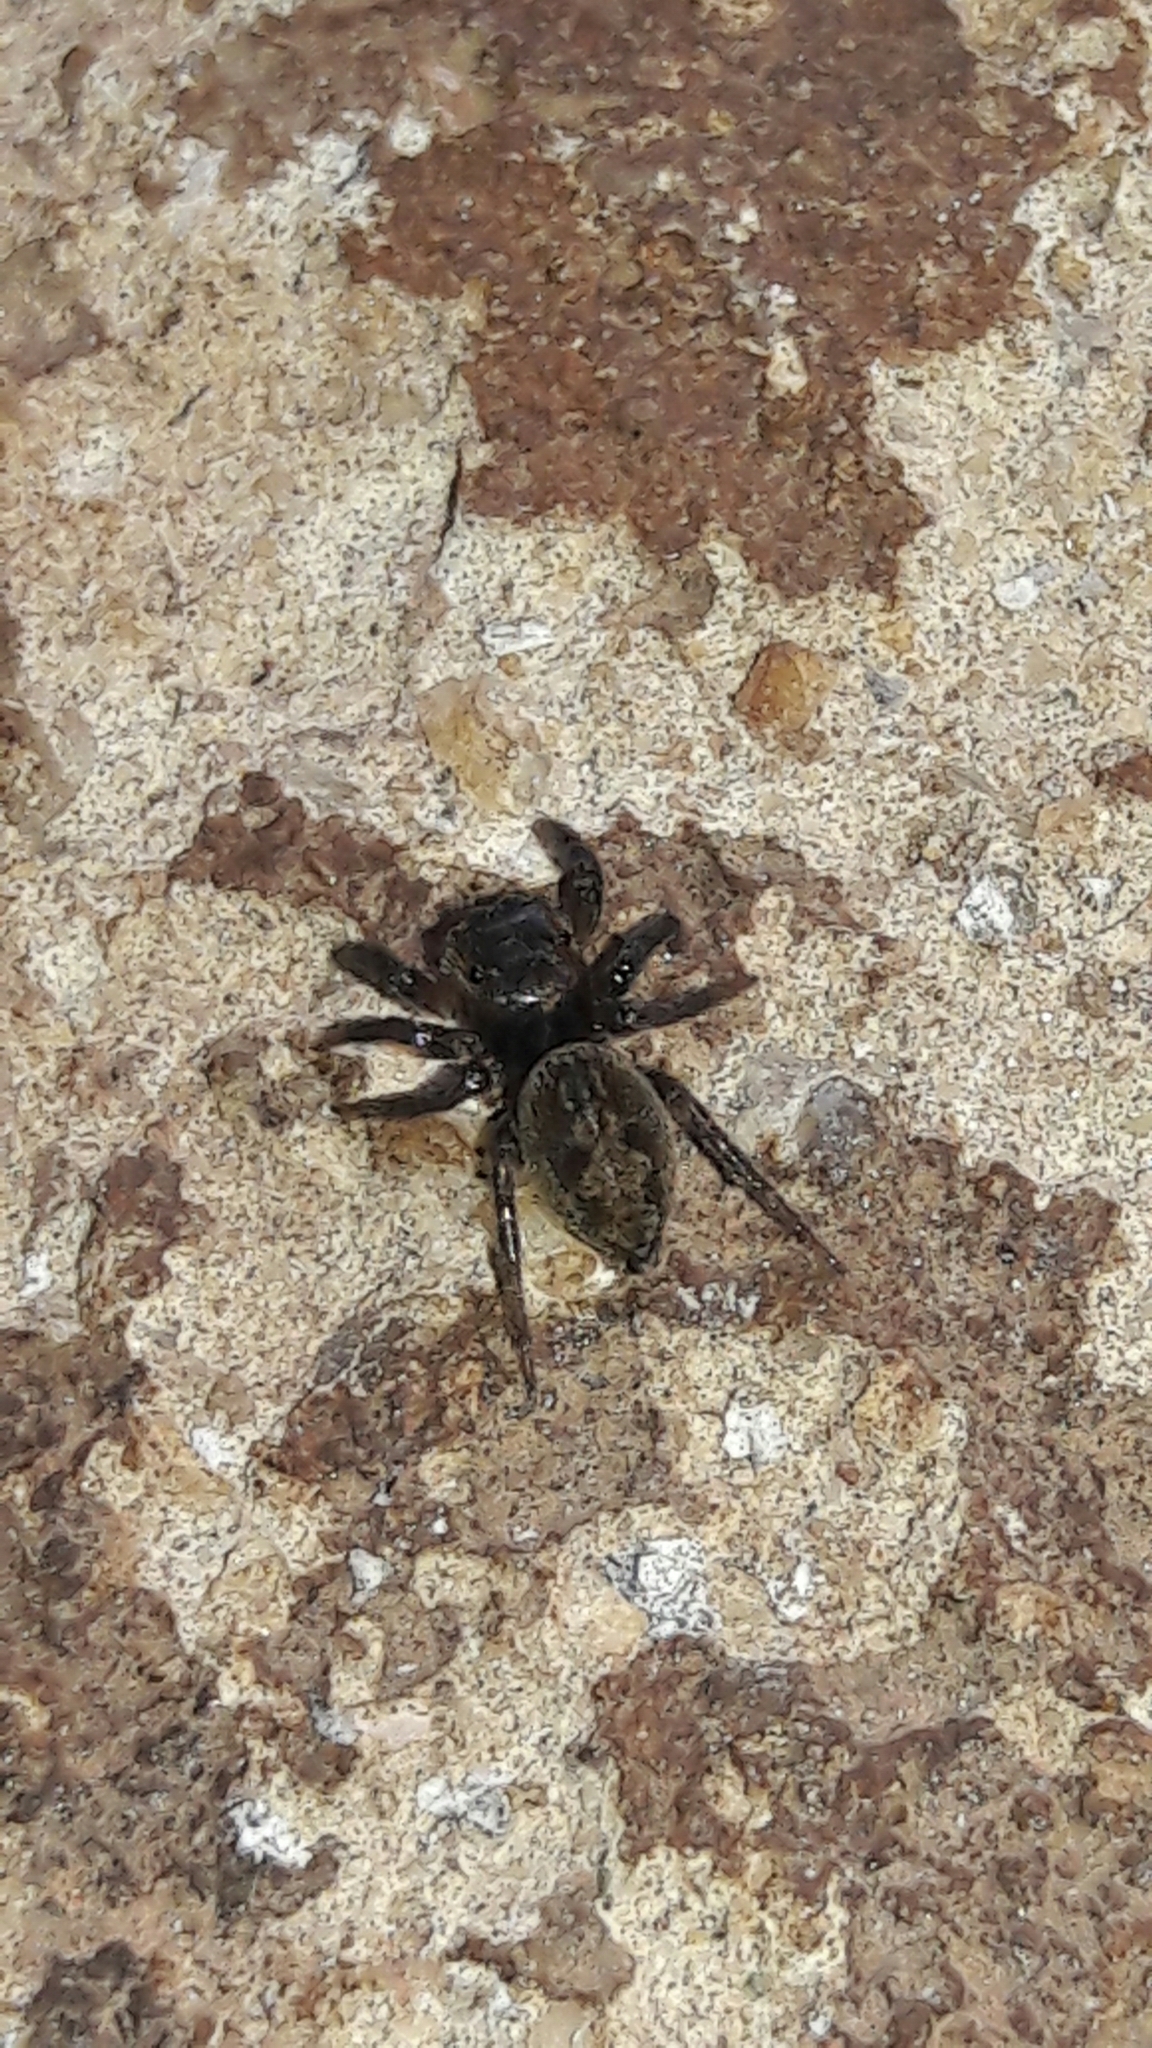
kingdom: Animalia
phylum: Arthropoda
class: Arachnida
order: Araneae
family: Salticidae
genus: Hasarius
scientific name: Hasarius adansoni
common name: Jumping spider
